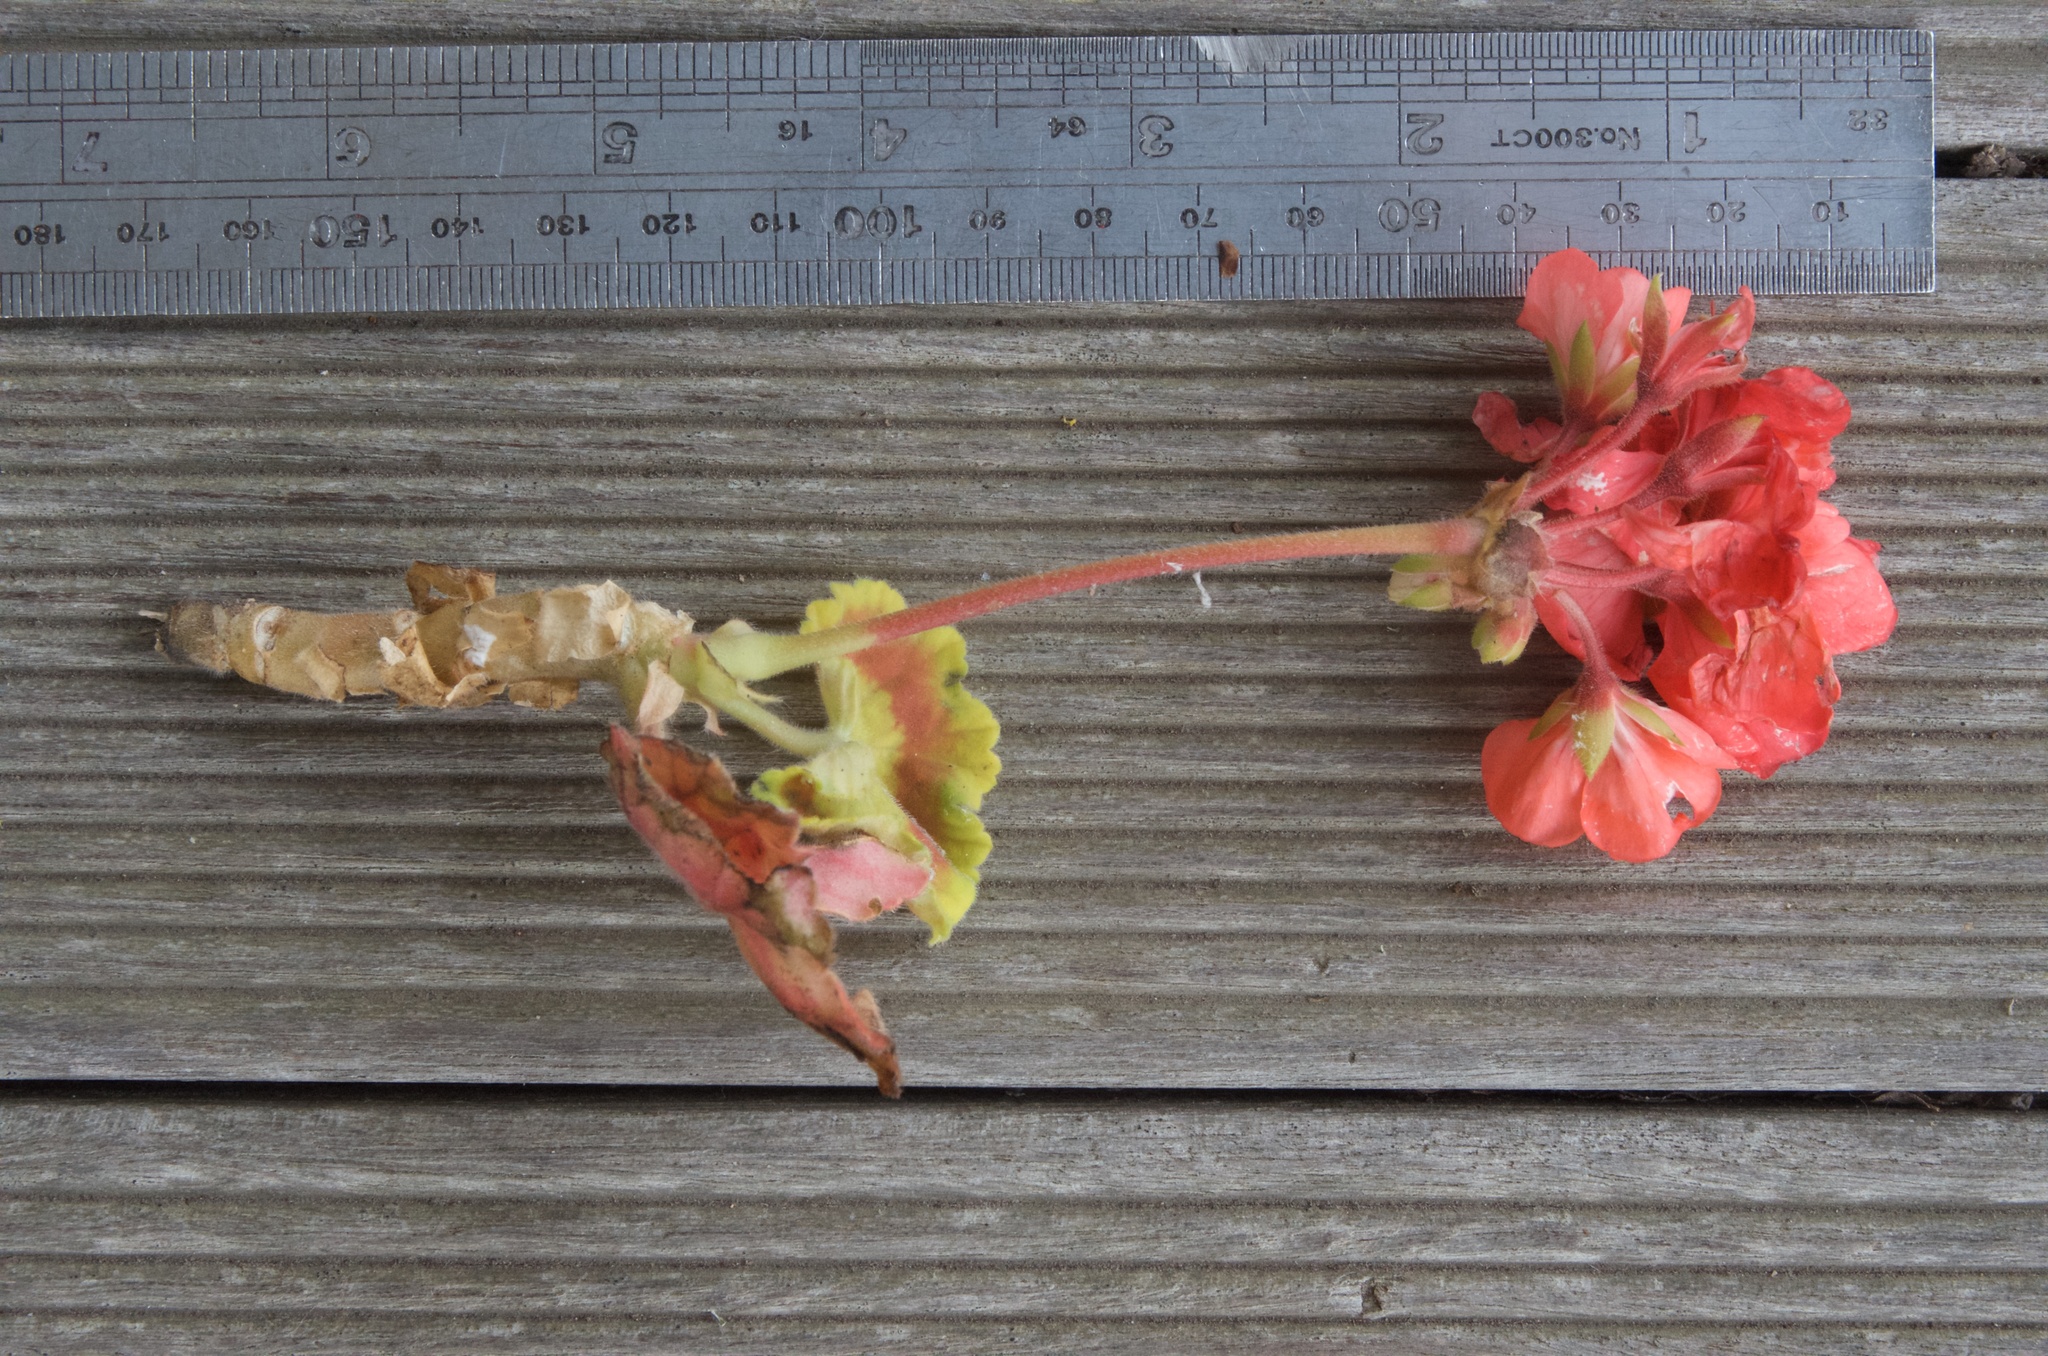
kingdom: Plantae
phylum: Tracheophyta
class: Magnoliopsida
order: Geraniales
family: Geraniaceae
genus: Pelargonium
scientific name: Pelargonium hybridum
